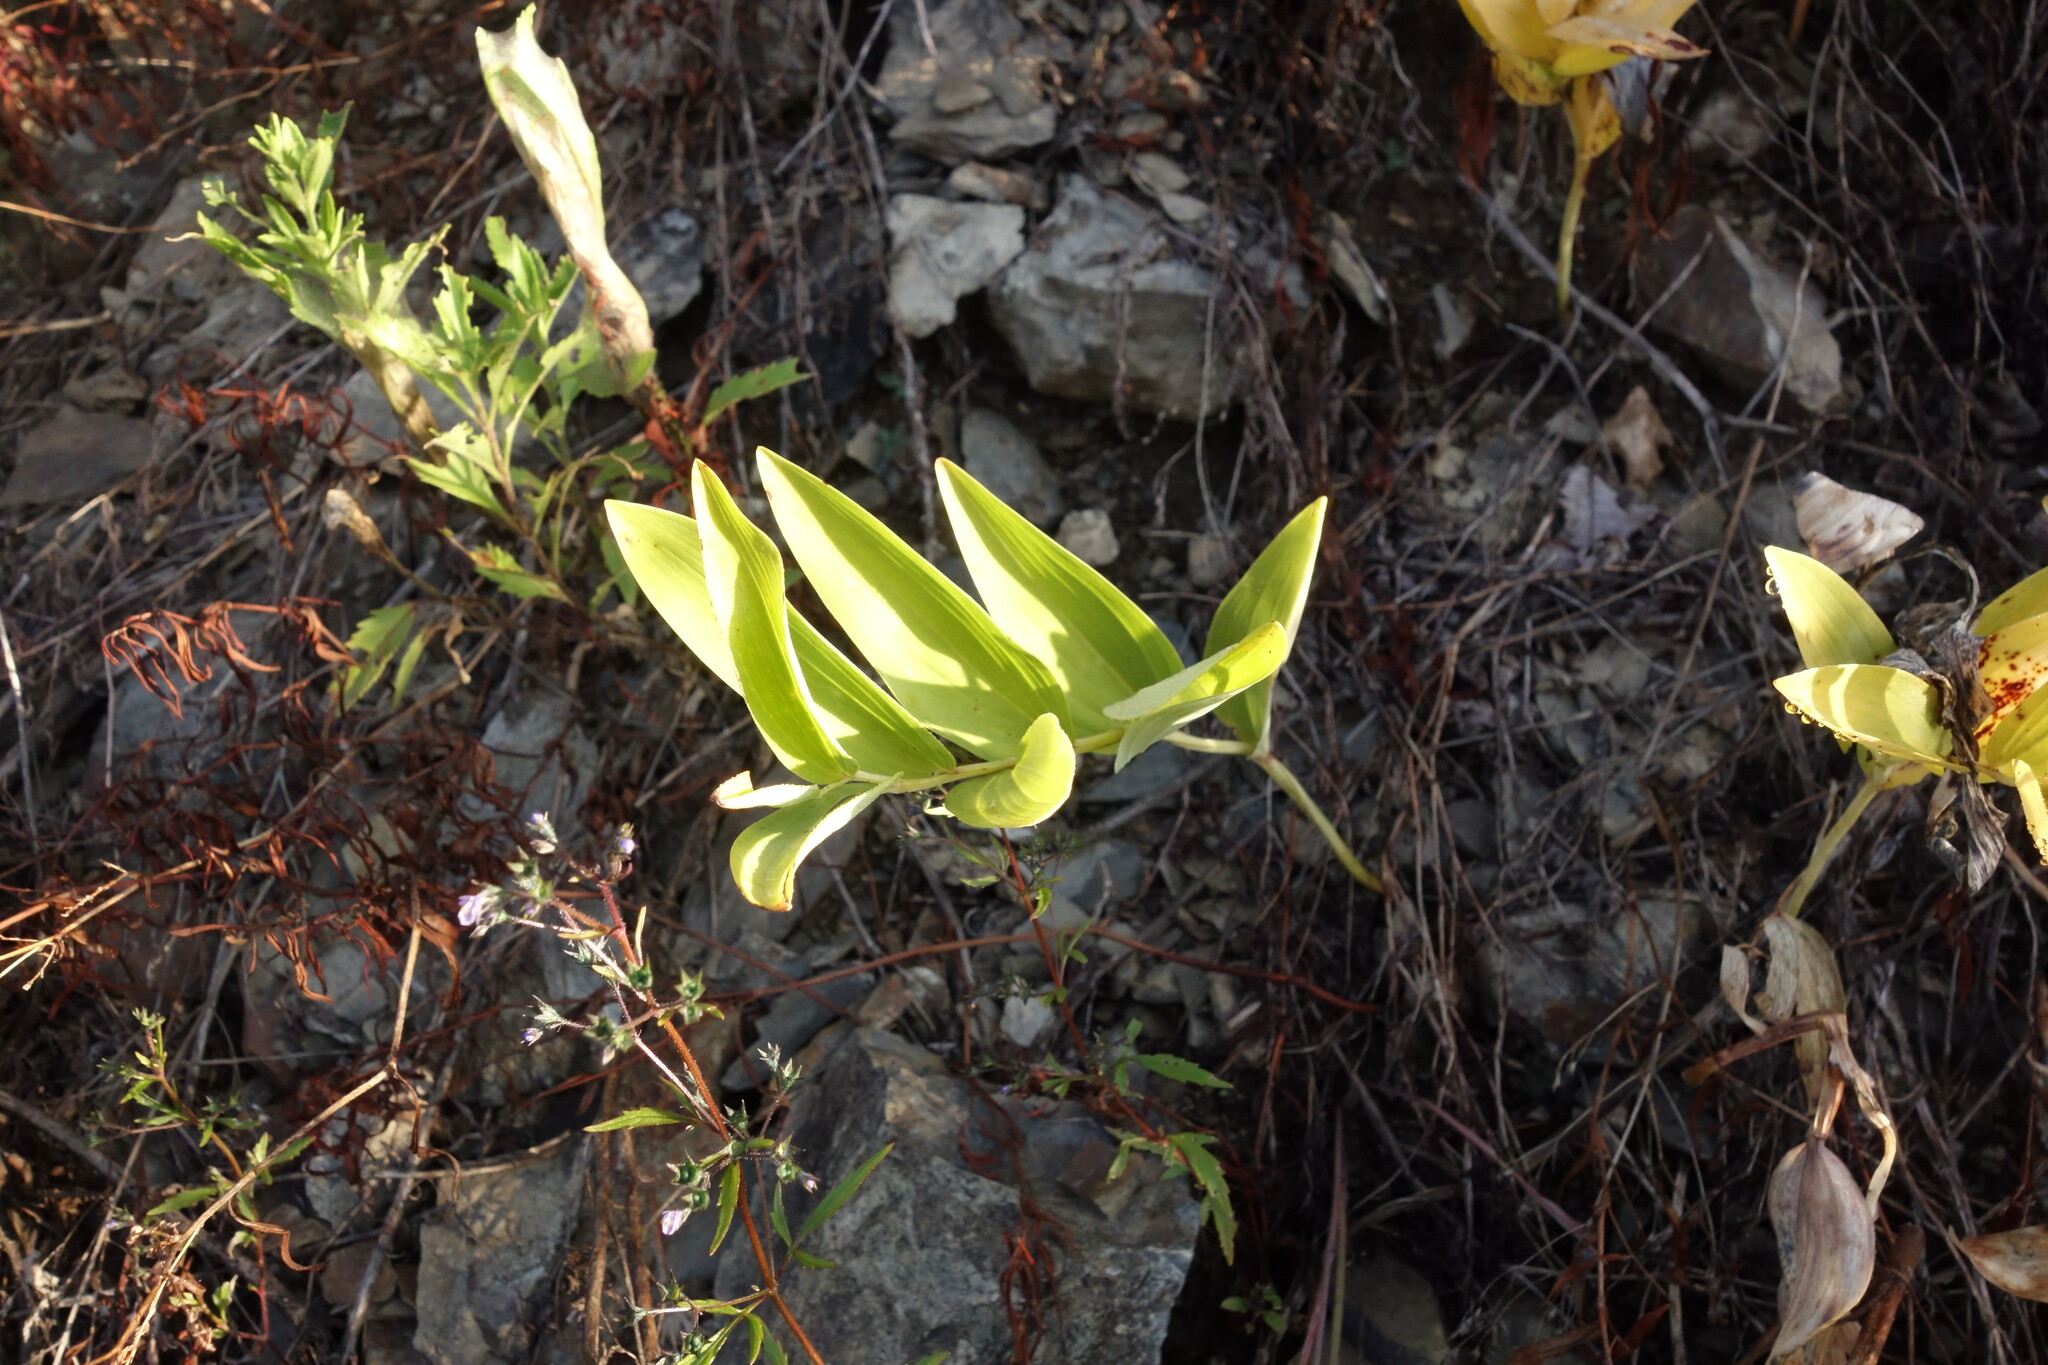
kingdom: Plantae
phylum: Tracheophyta
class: Liliopsida
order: Asparagales
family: Asparagaceae
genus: Polygonatum
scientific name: Polygonatum odoratum
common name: Angular solomon's-seal
